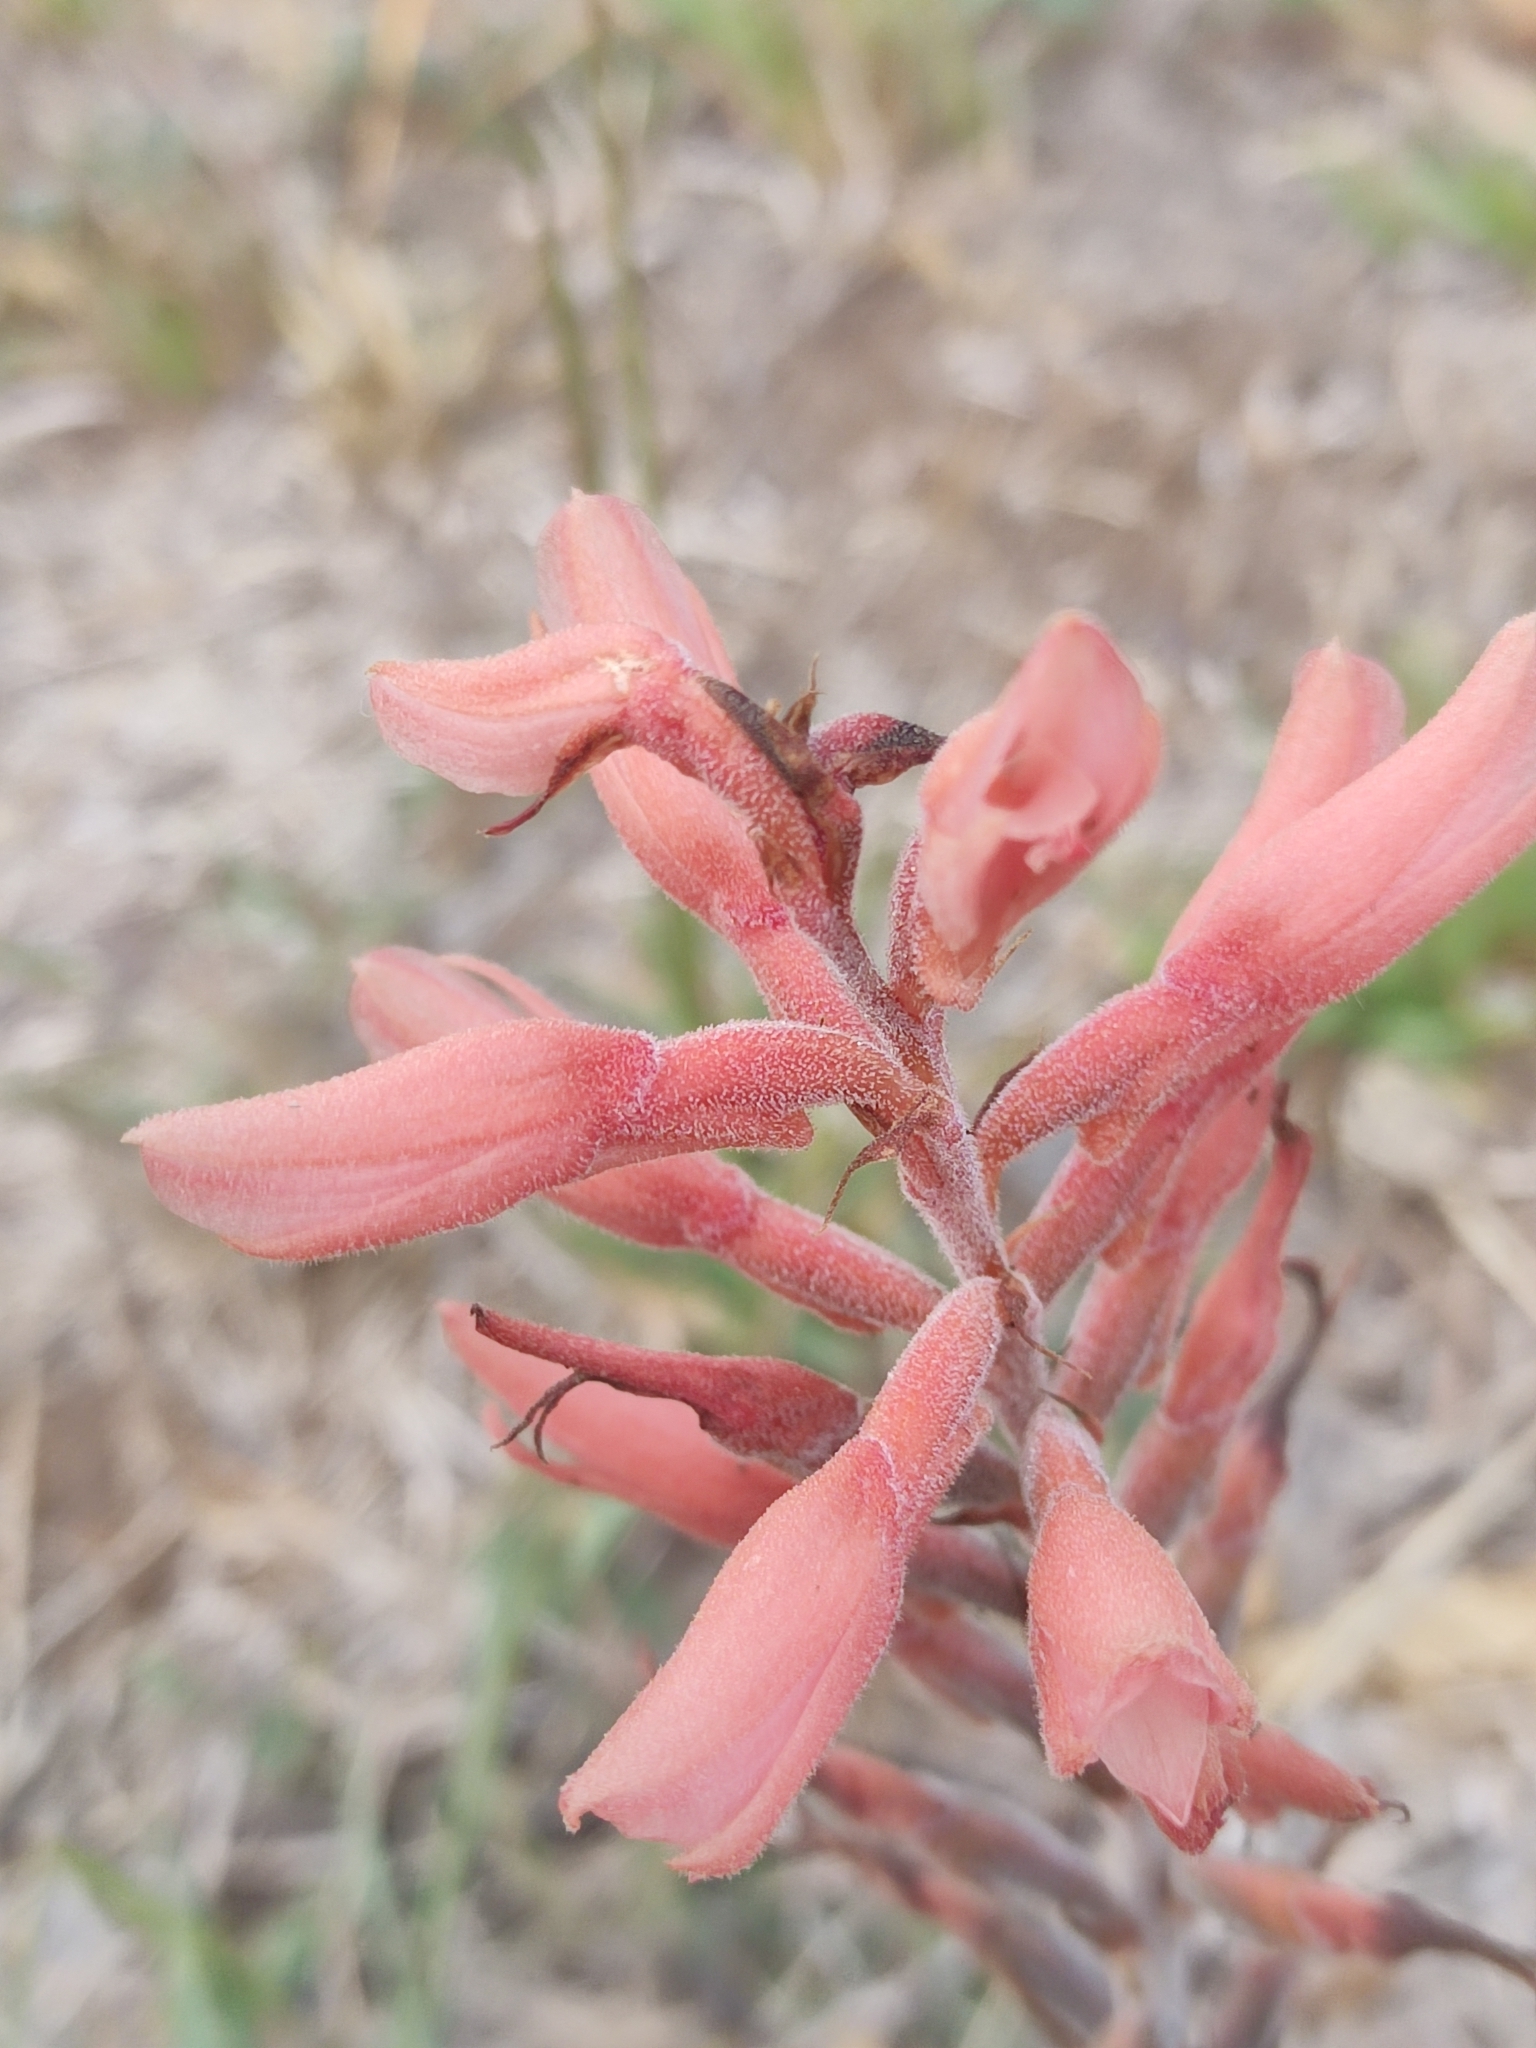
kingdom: Plantae
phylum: Tracheophyta
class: Liliopsida
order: Asparagales
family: Orchidaceae
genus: Sacoila
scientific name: Sacoila lanceolata
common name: Leafless beaked ladiestresses
